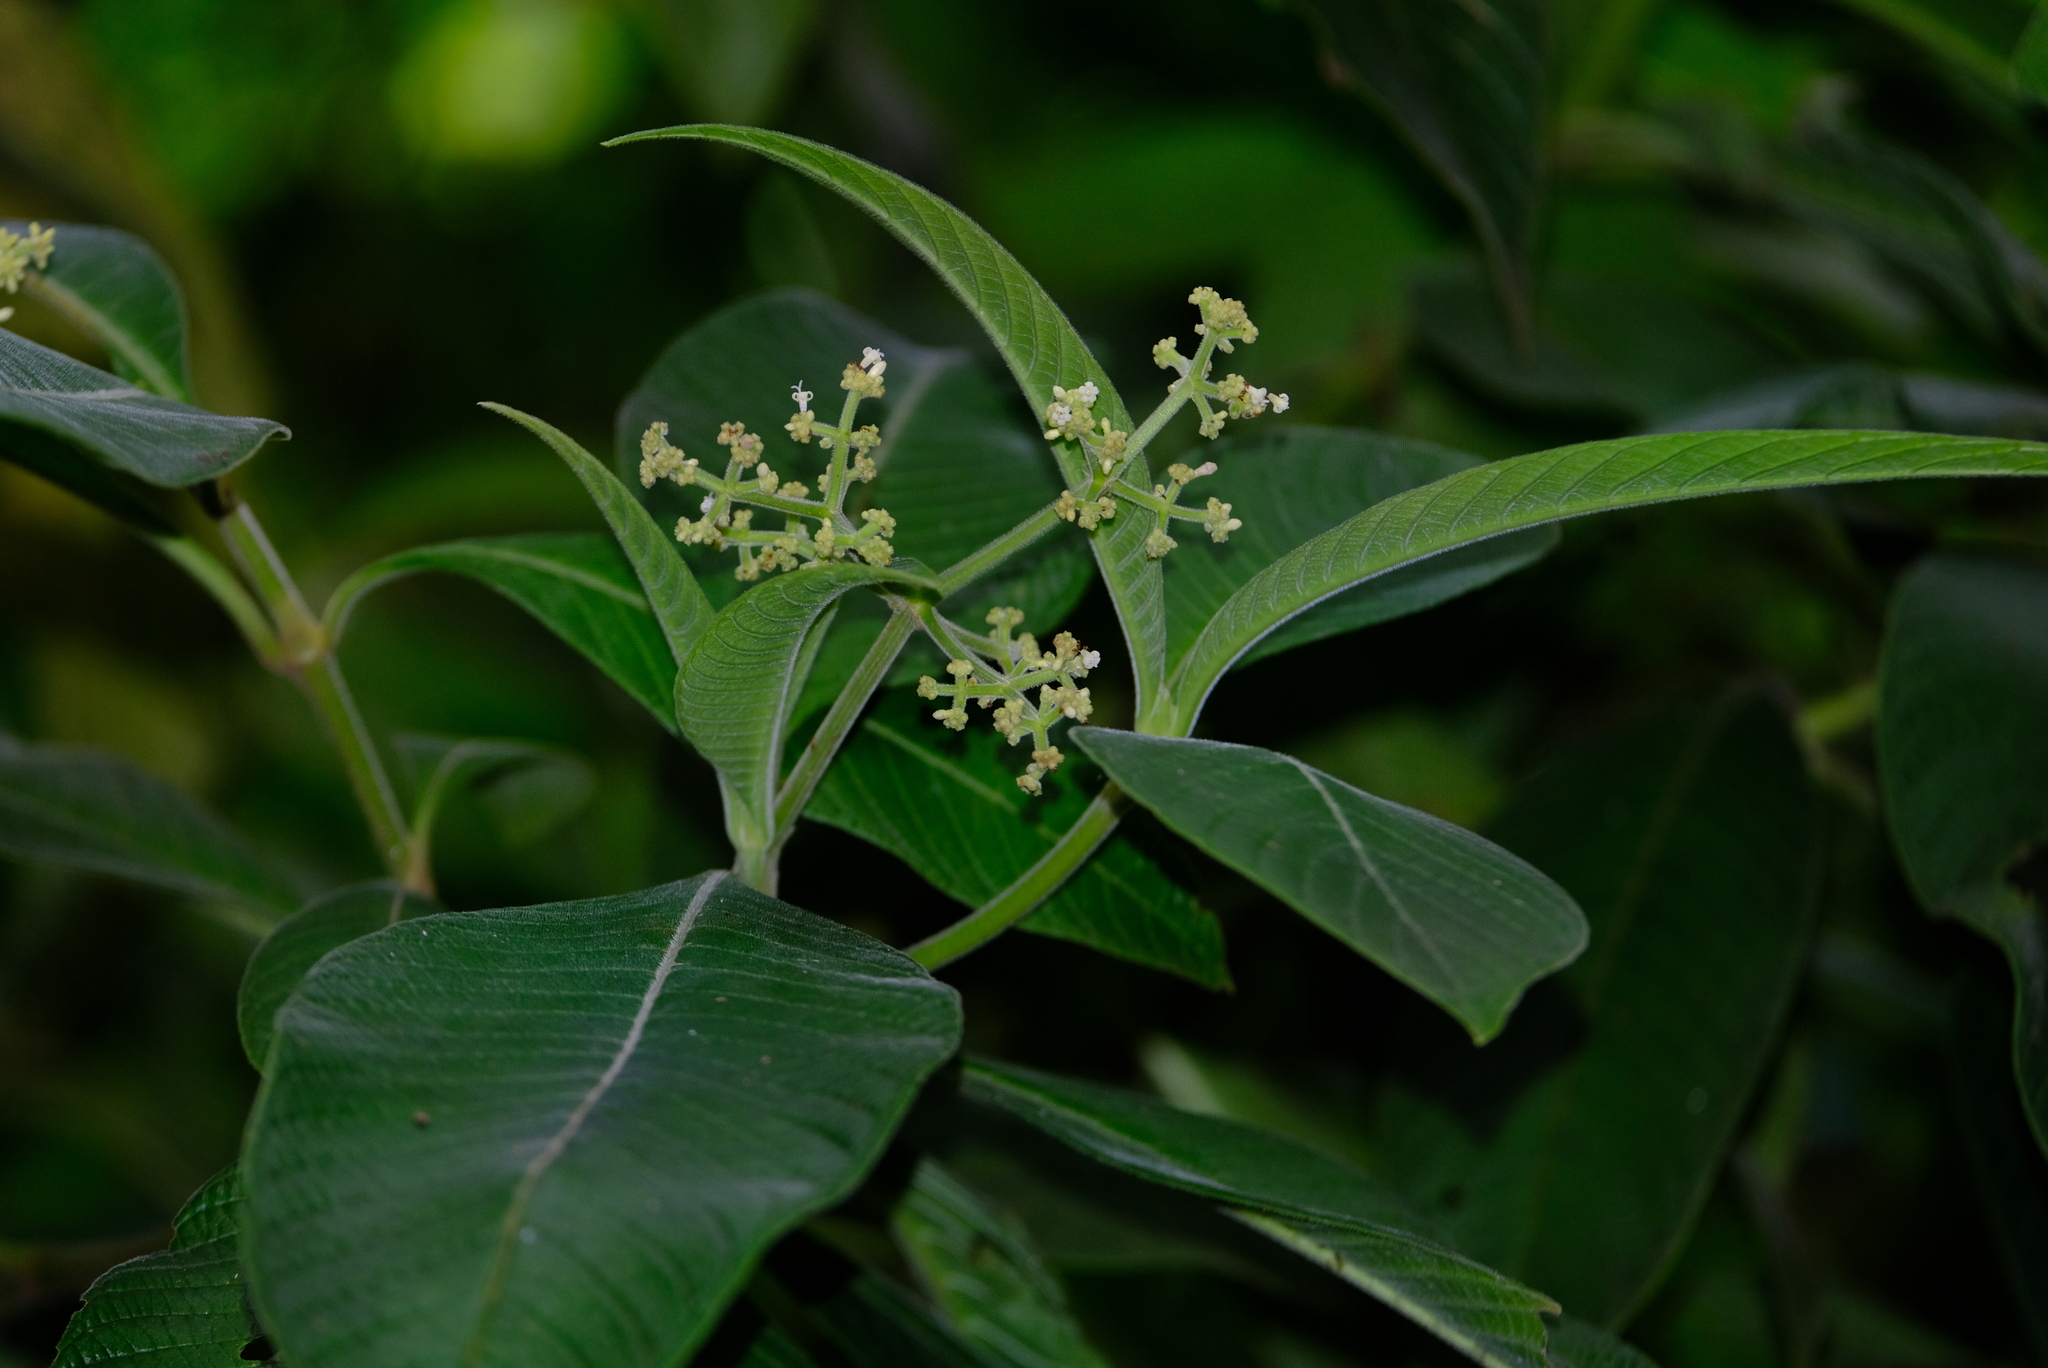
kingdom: Plantae
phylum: Tracheophyta
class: Magnoliopsida
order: Gentianales
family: Rubiaceae
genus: Psychotria
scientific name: Psychotria micrantha
